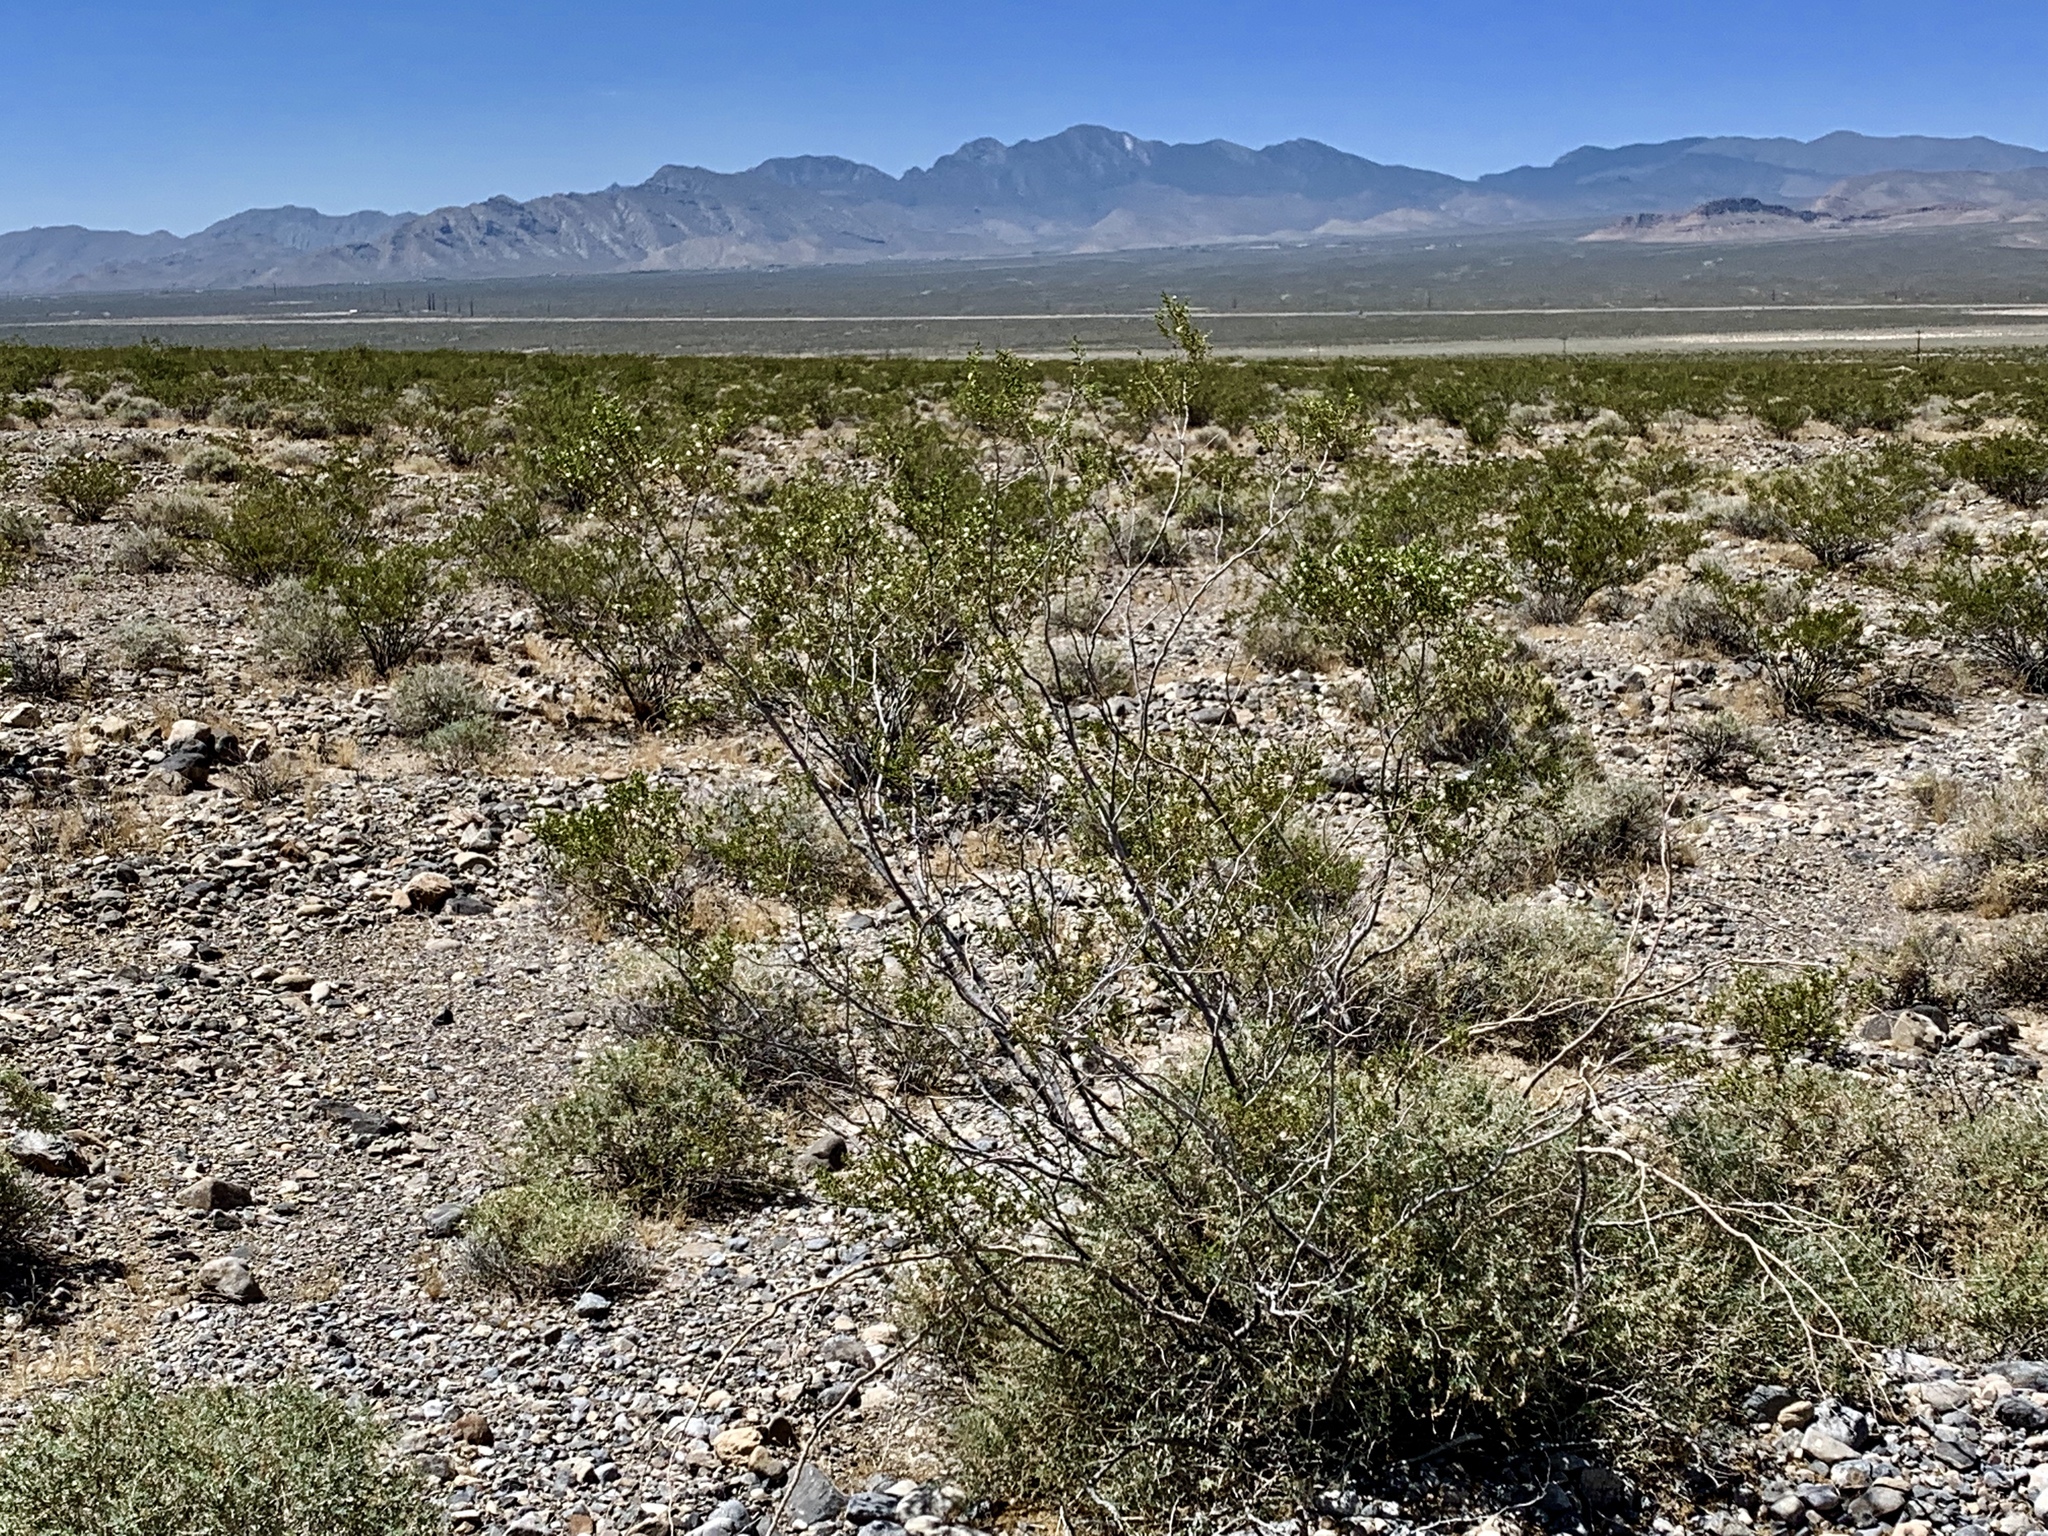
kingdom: Plantae
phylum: Tracheophyta
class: Magnoliopsida
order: Zygophyllales
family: Zygophyllaceae
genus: Larrea
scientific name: Larrea tridentata
